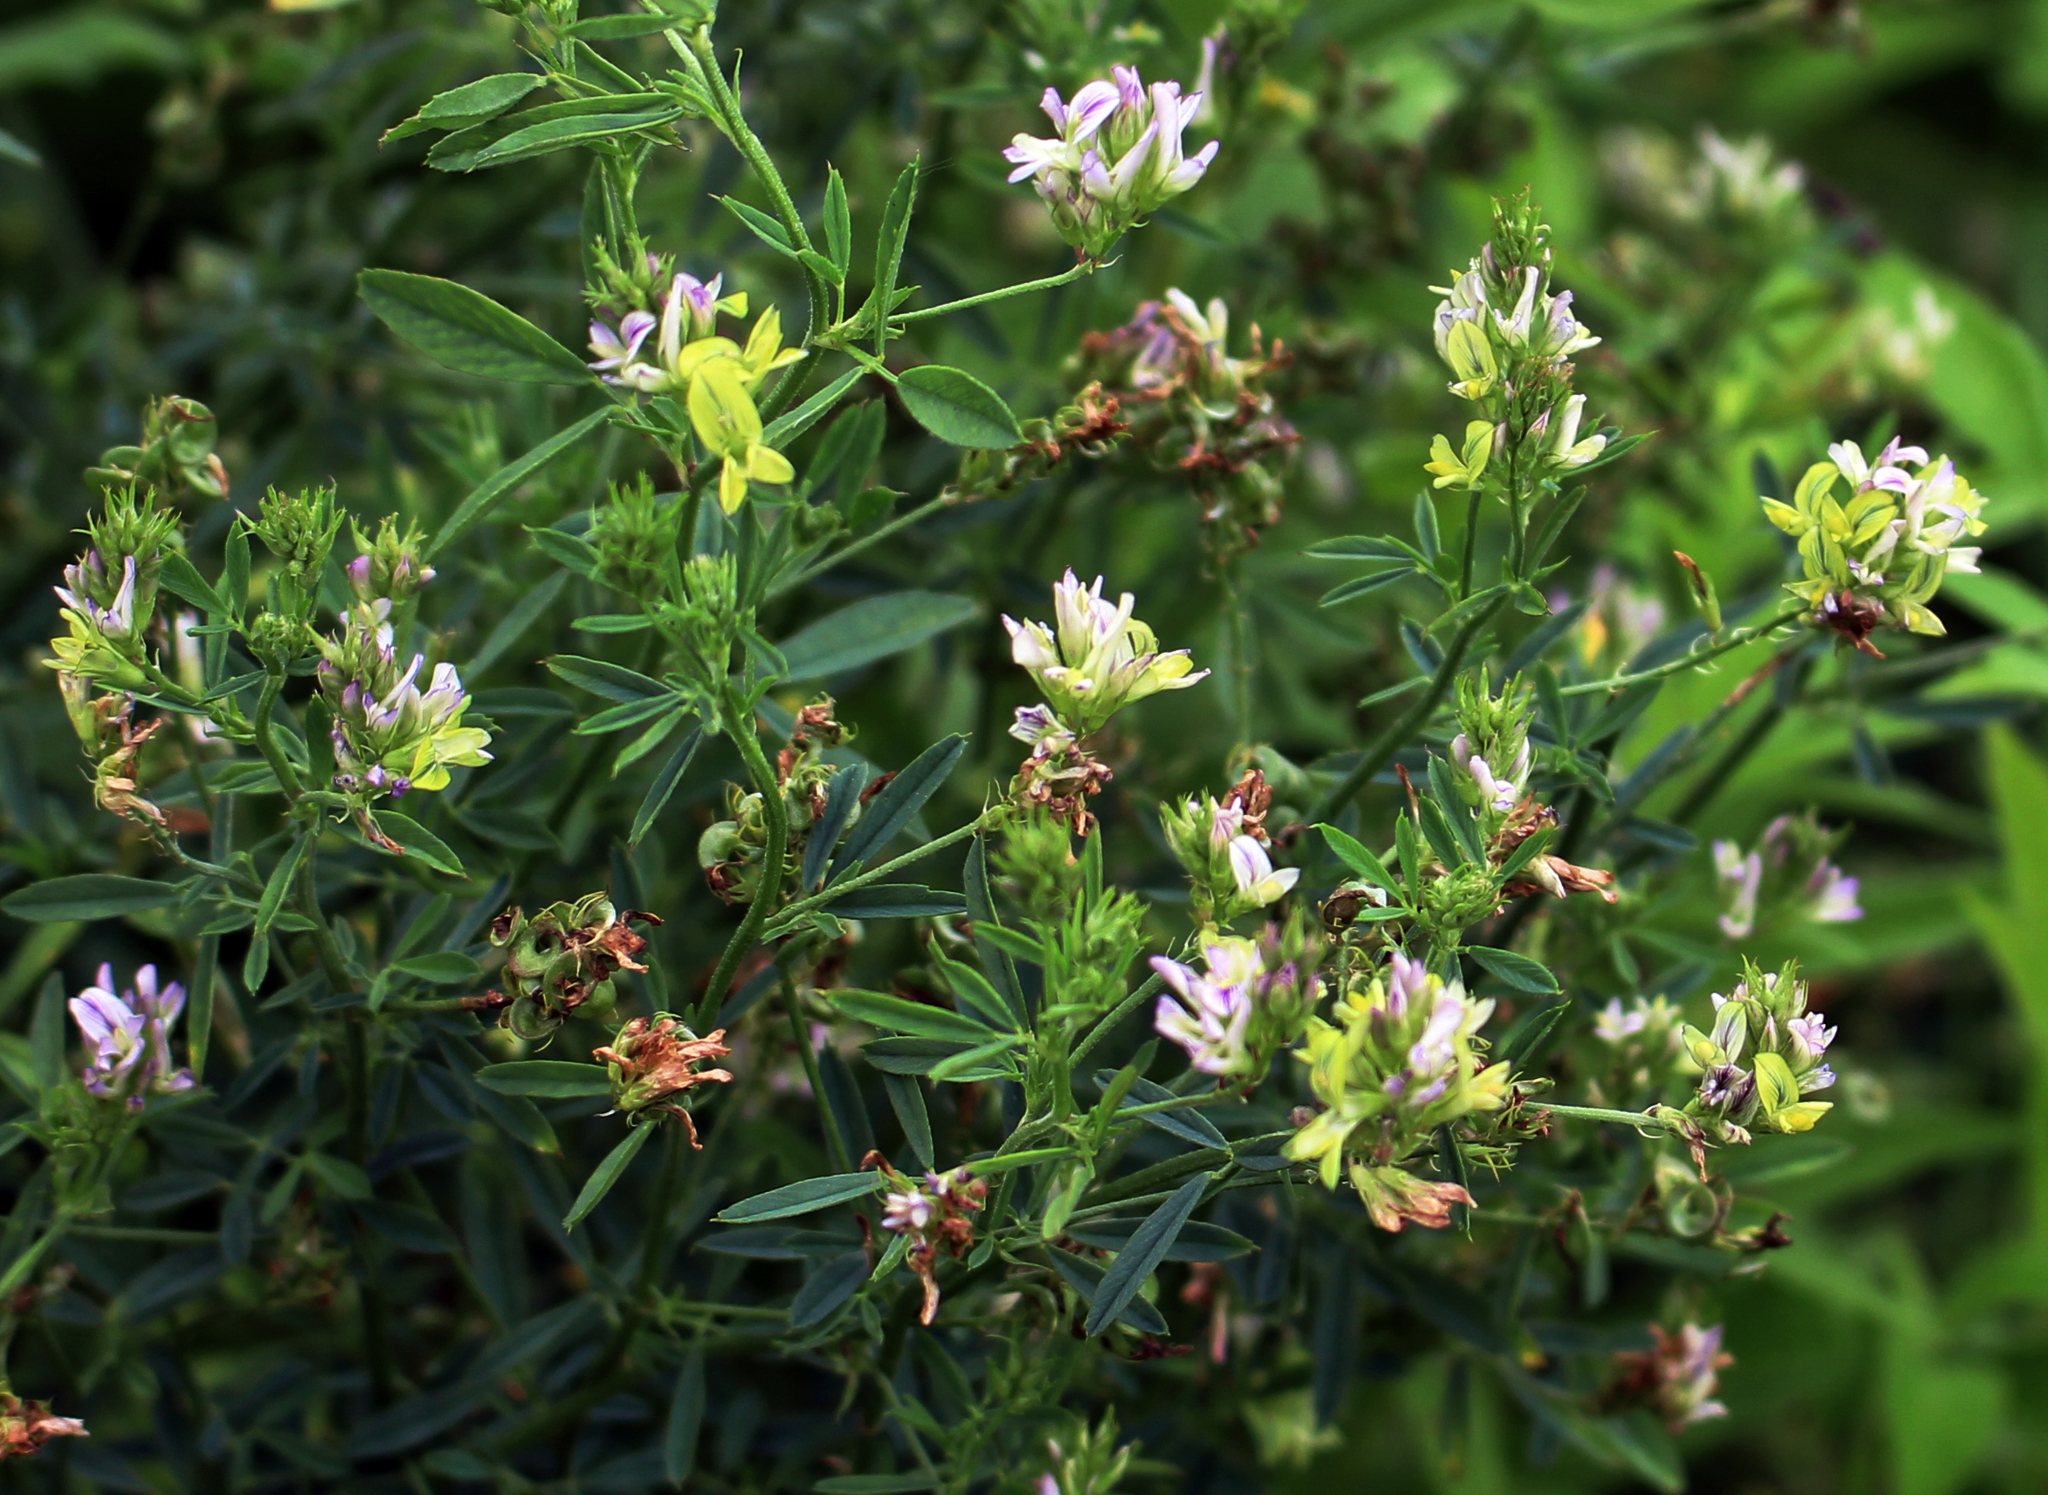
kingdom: Plantae
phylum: Tracheophyta
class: Magnoliopsida
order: Fabales
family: Fabaceae
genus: Medicago
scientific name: Medicago varia
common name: Sand lucerne
